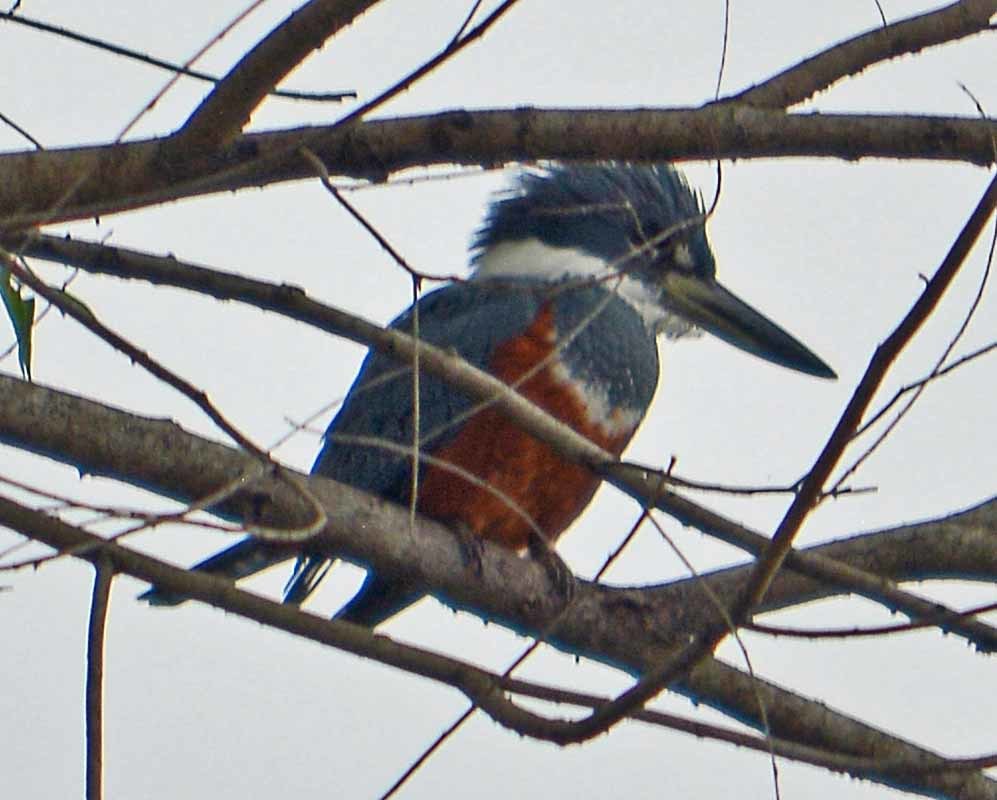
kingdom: Animalia
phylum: Chordata
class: Aves
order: Coraciiformes
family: Alcedinidae
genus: Megaceryle
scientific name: Megaceryle torquata
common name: Ringed kingfisher
